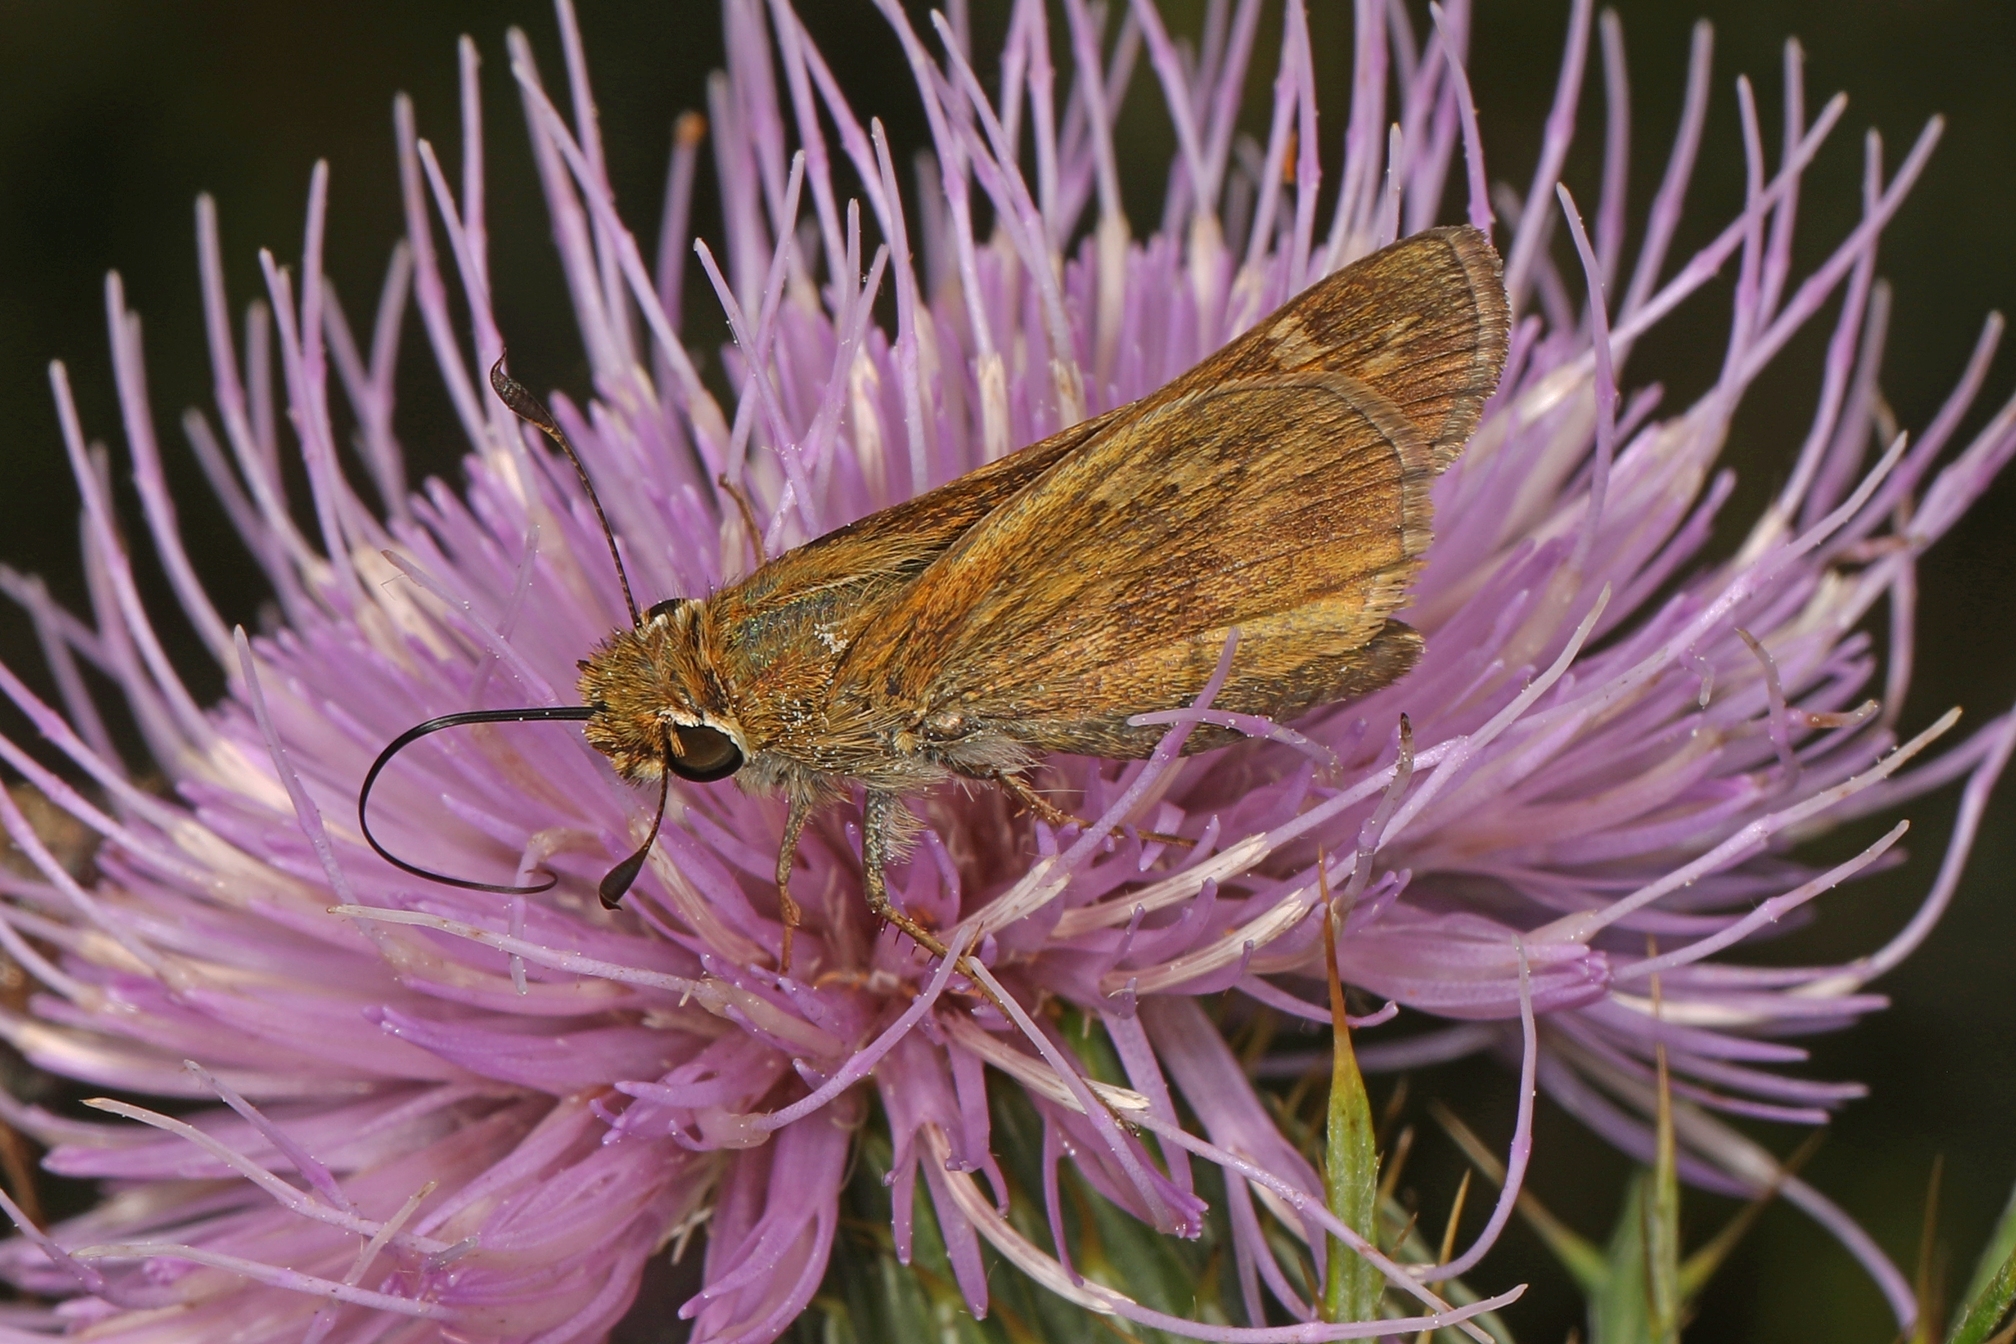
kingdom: Animalia
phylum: Arthropoda
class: Insecta
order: Lepidoptera
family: Hesperiidae
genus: Atalopedes
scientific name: Atalopedes
